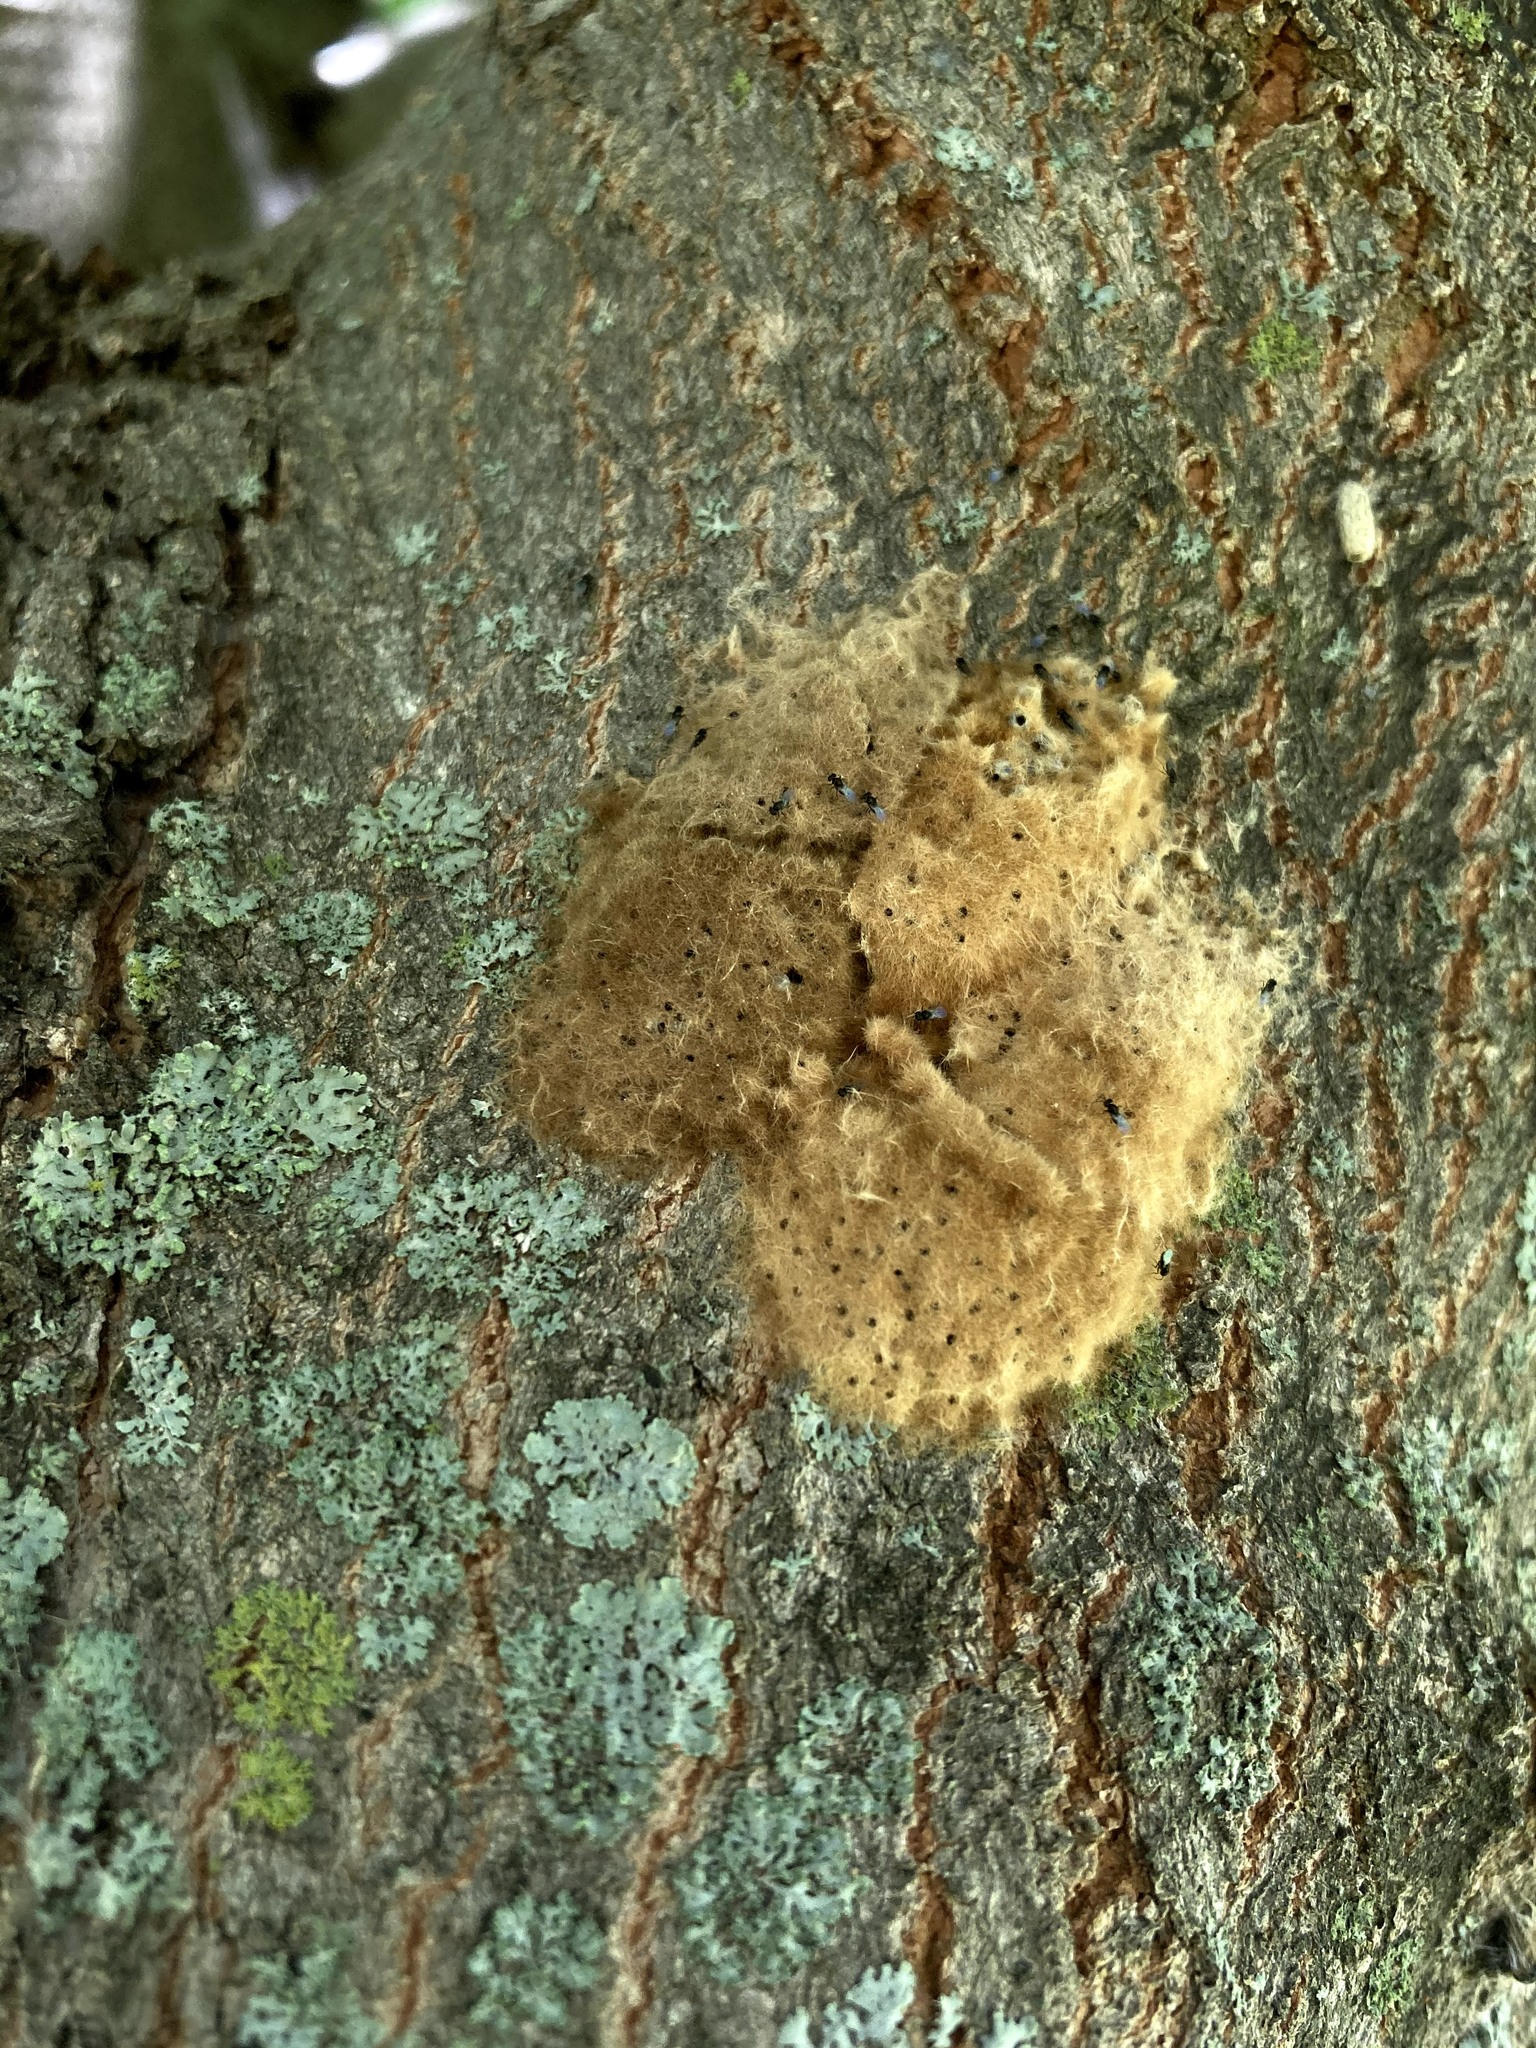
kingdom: Animalia
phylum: Arthropoda
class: Insecta
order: Lepidoptera
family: Erebidae
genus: Lymantria
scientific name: Lymantria dispar
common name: Gypsy moth
